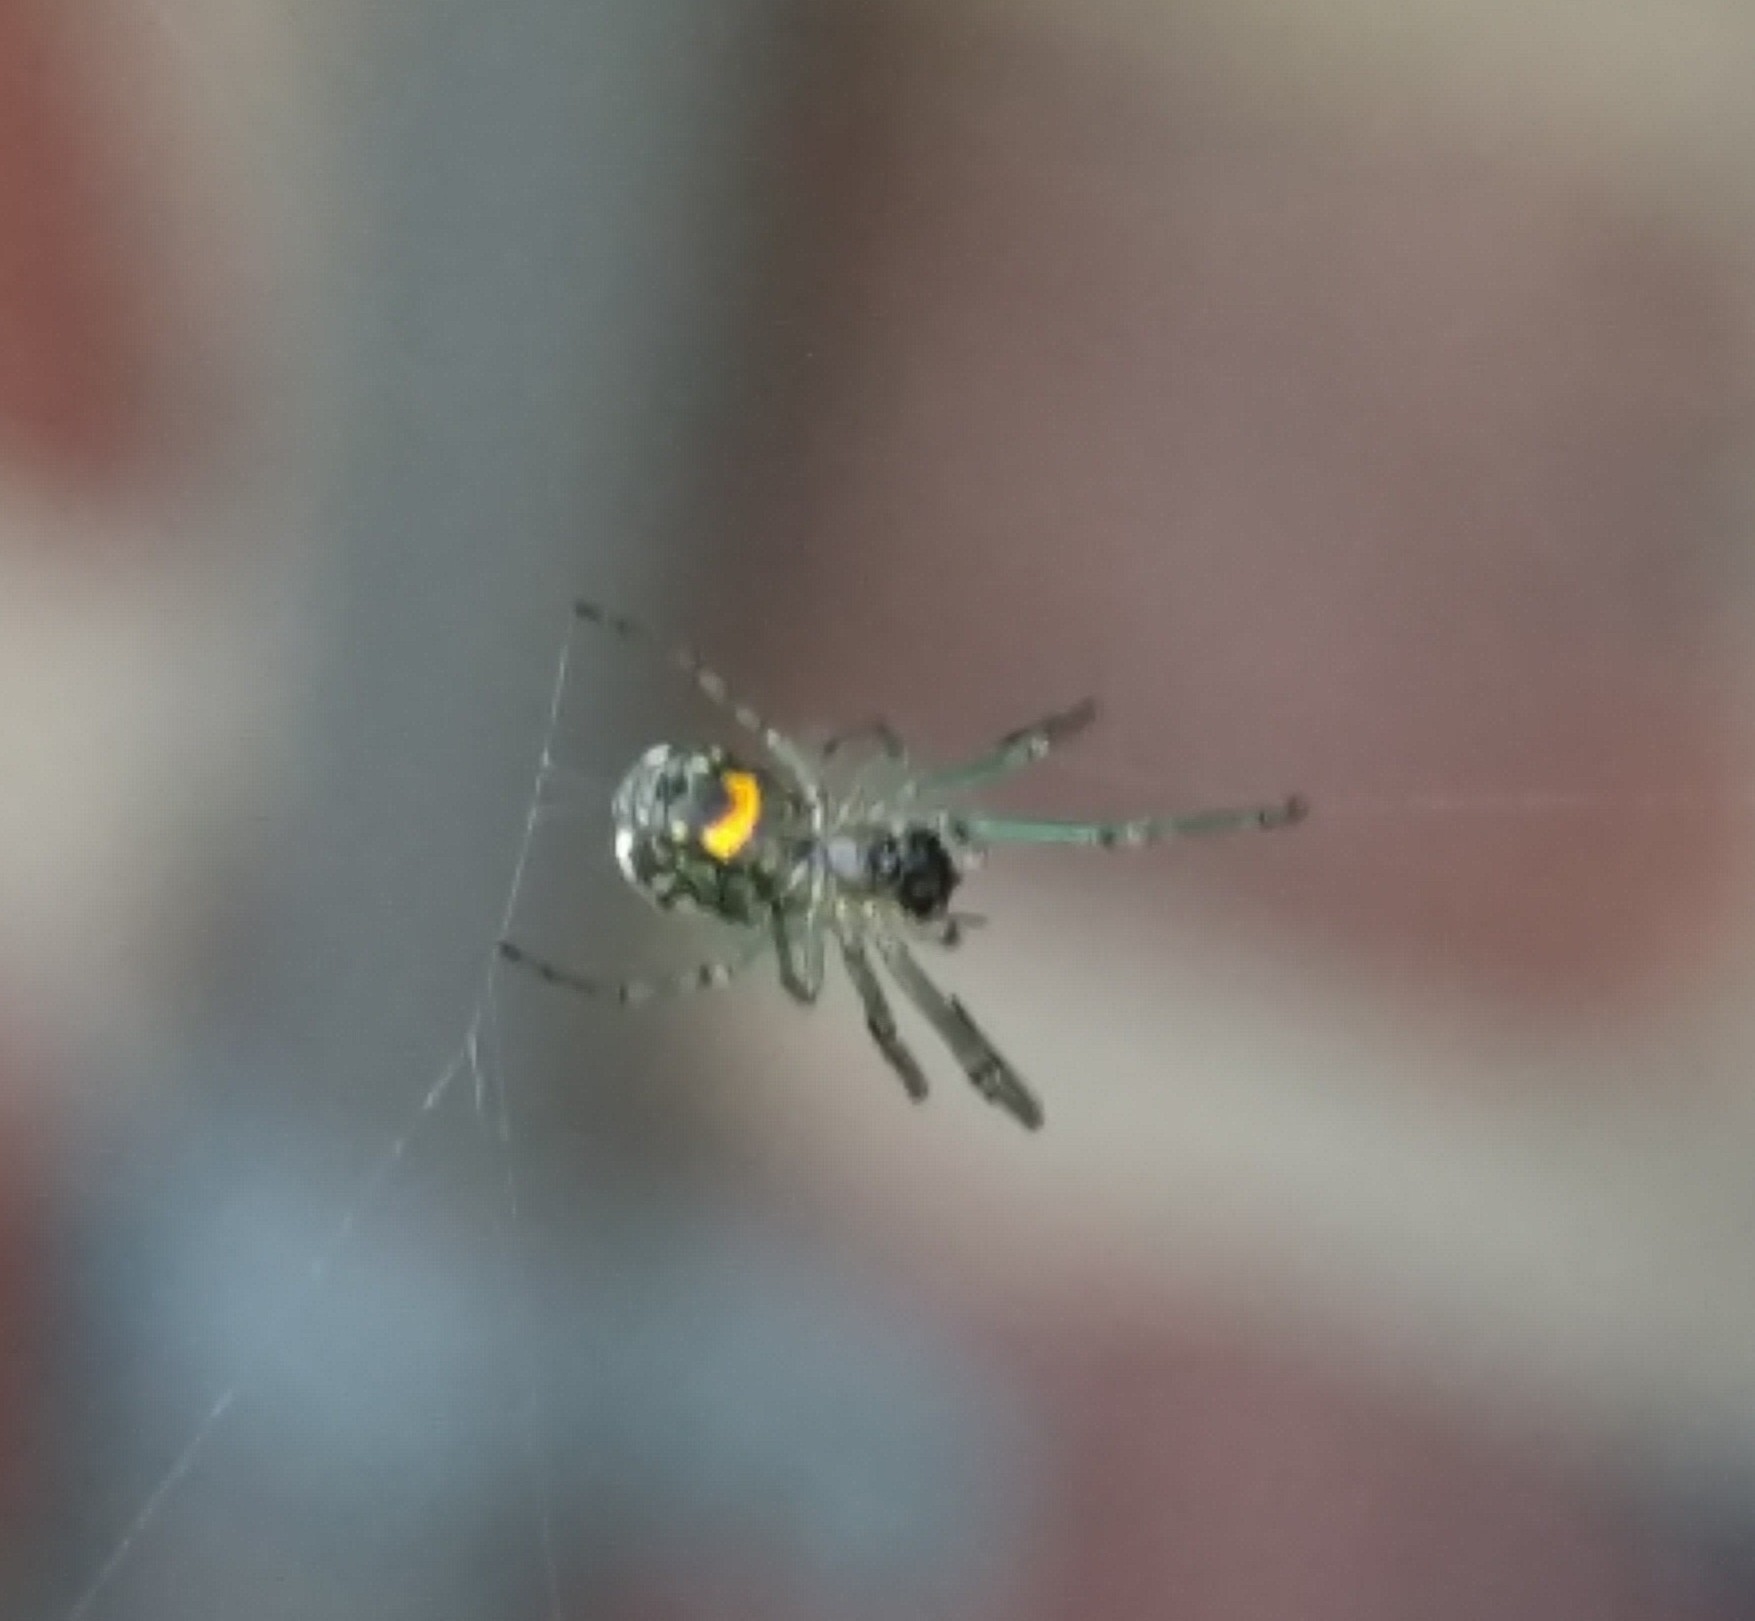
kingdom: Animalia
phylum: Arthropoda
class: Arachnida
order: Araneae
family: Tetragnathidae
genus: Leucauge
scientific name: Leucauge venusta
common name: Longjawed orb weavers
